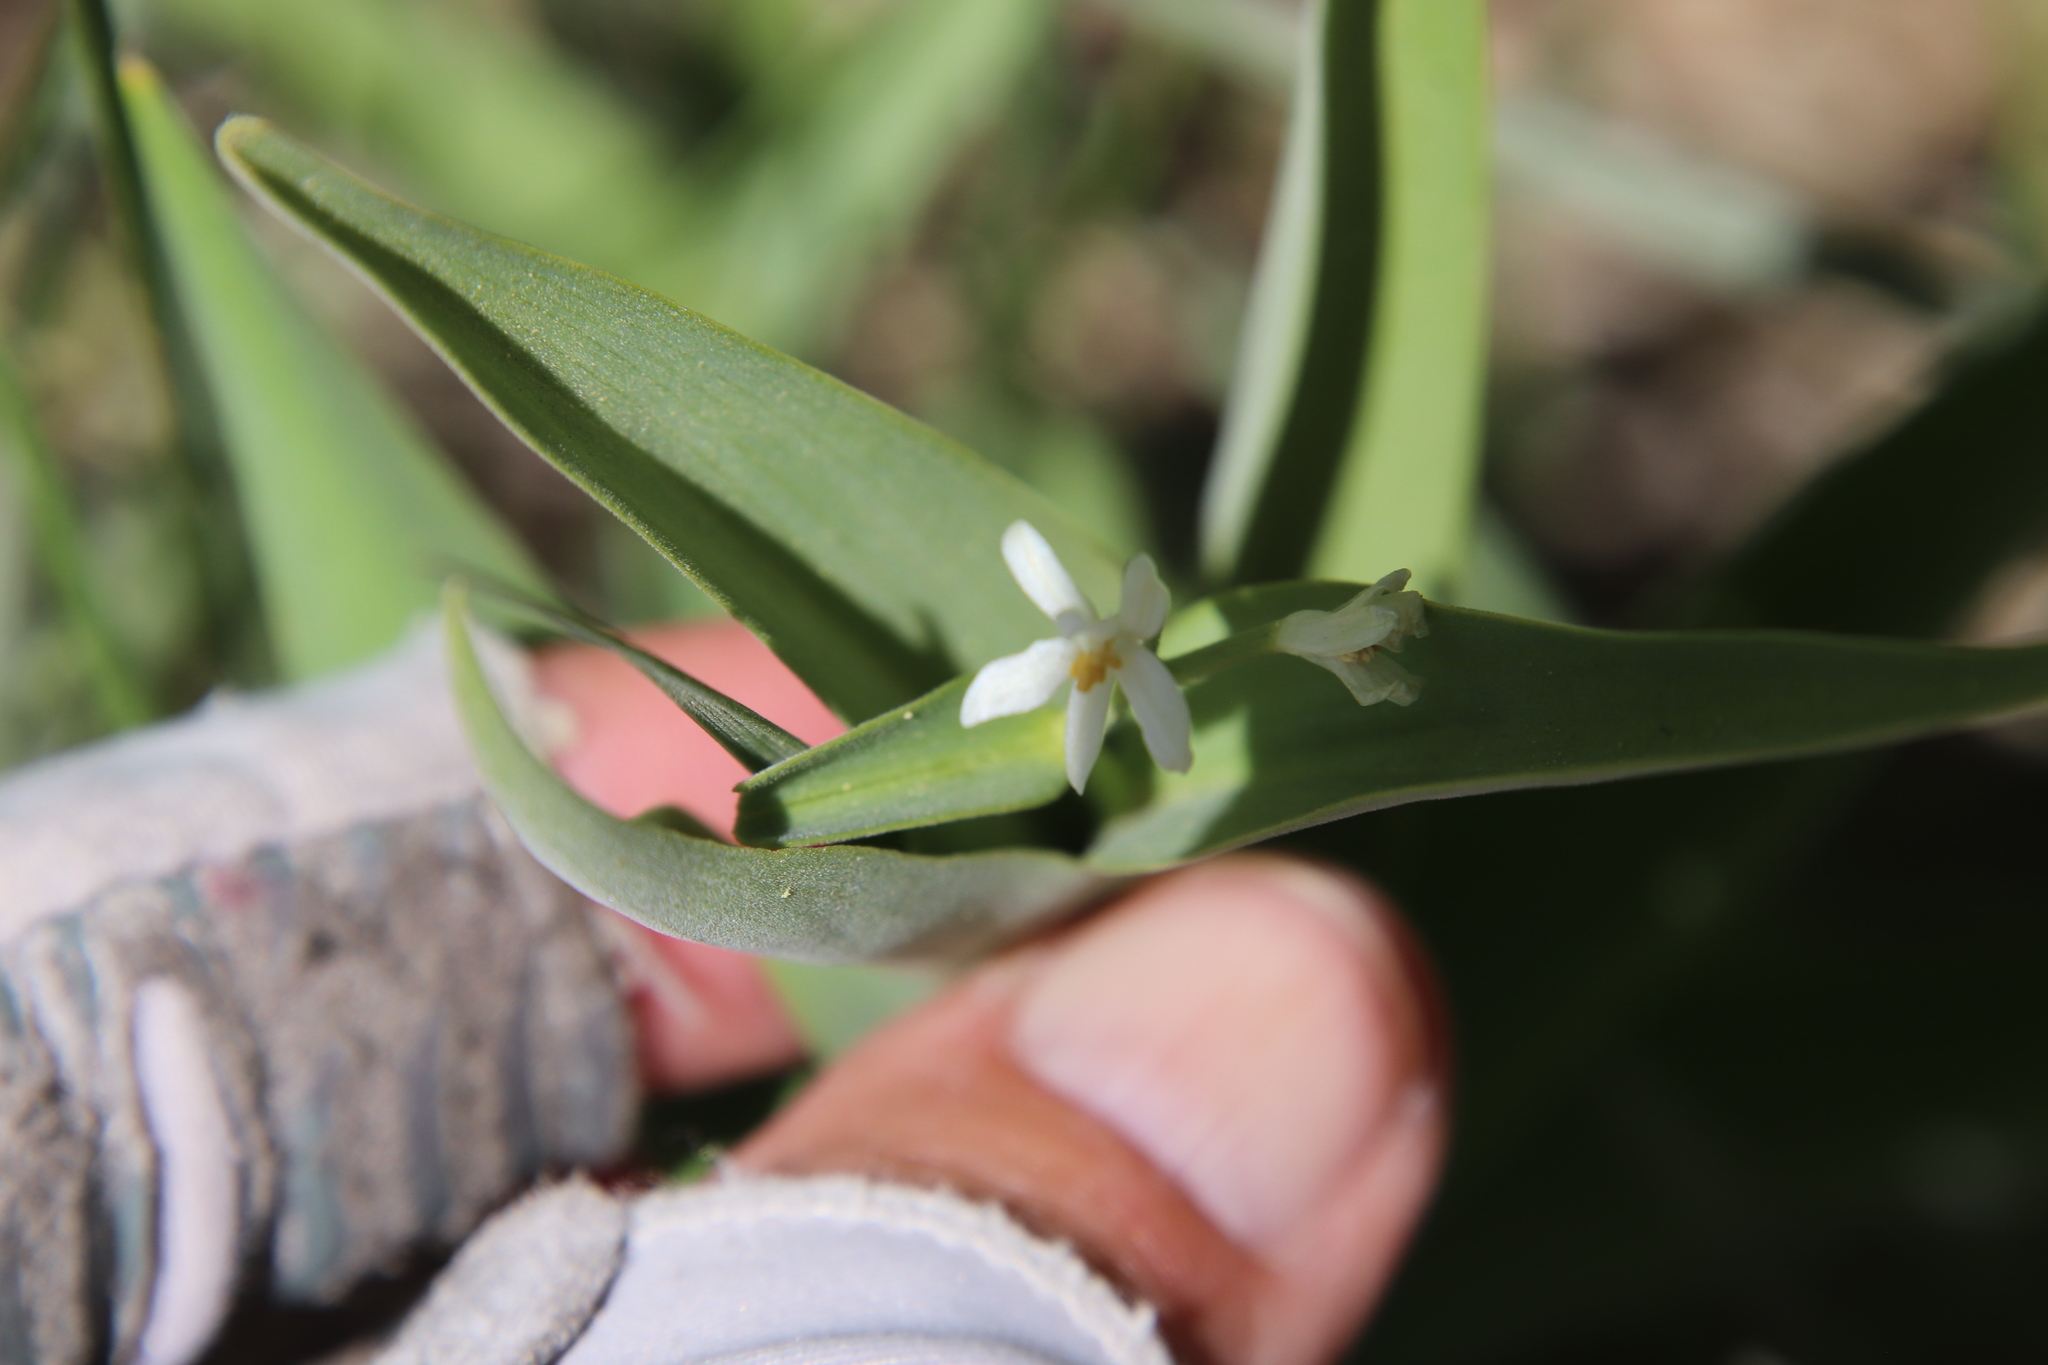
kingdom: Plantae
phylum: Tracheophyta
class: Liliopsida
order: Asparagales
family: Asparagaceae
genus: Maianthemum
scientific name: Maianthemum stellatum
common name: Little false solomon's seal
